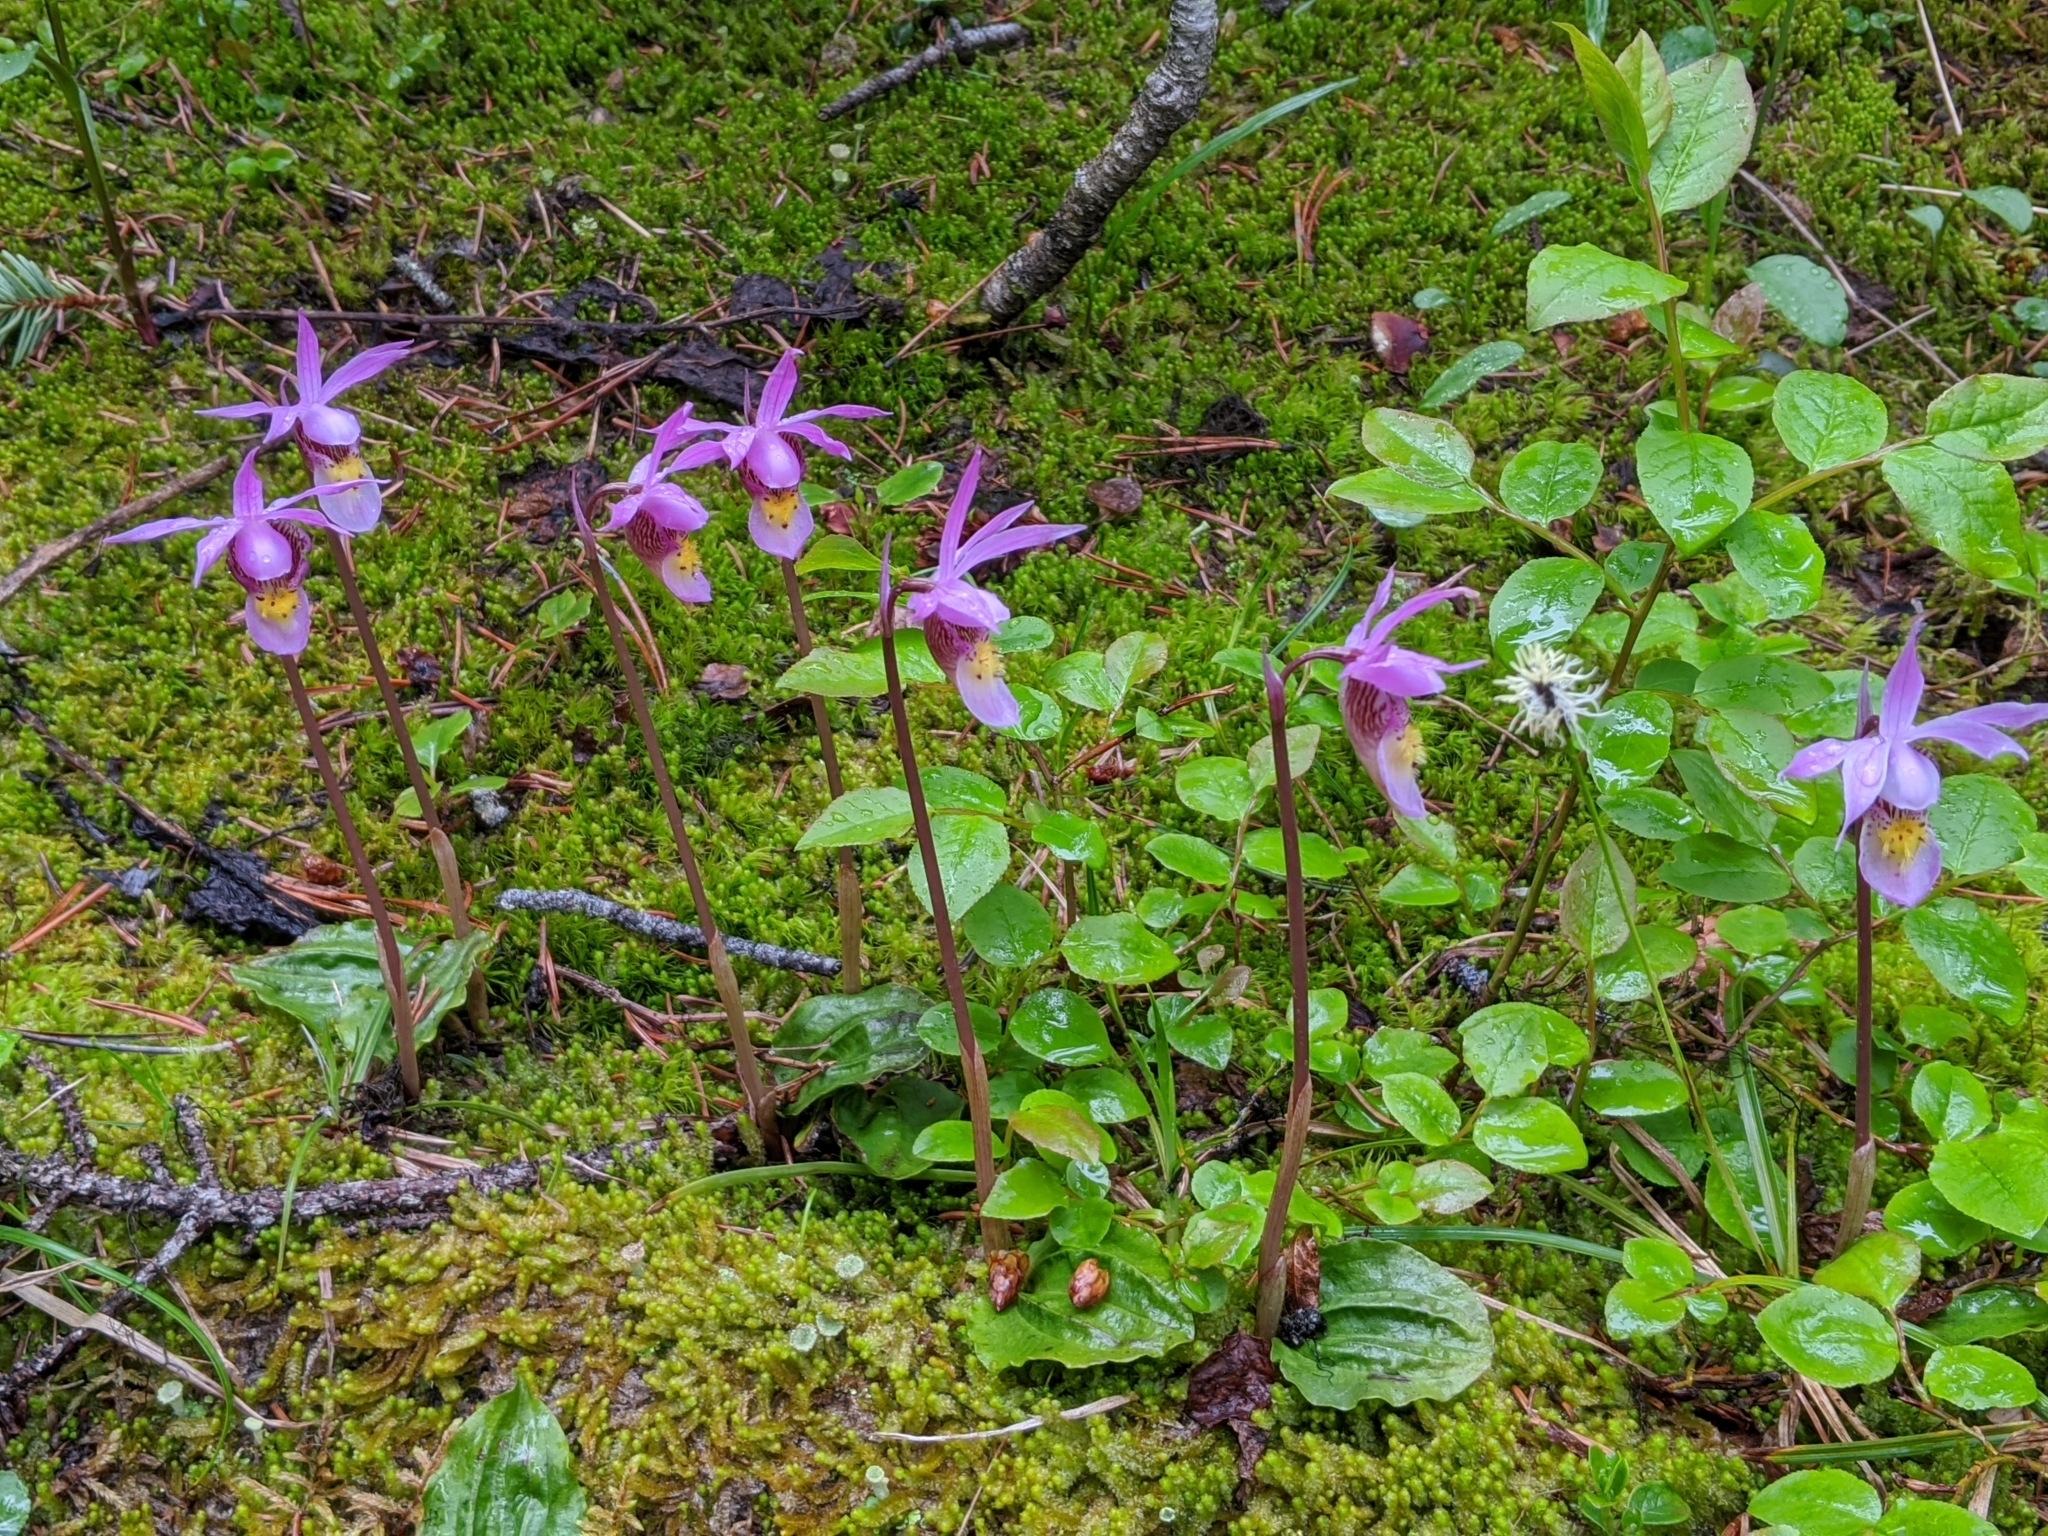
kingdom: Plantae
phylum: Tracheophyta
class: Liliopsida
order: Asparagales
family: Orchidaceae
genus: Calypso
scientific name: Calypso bulbosa
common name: Calypso
